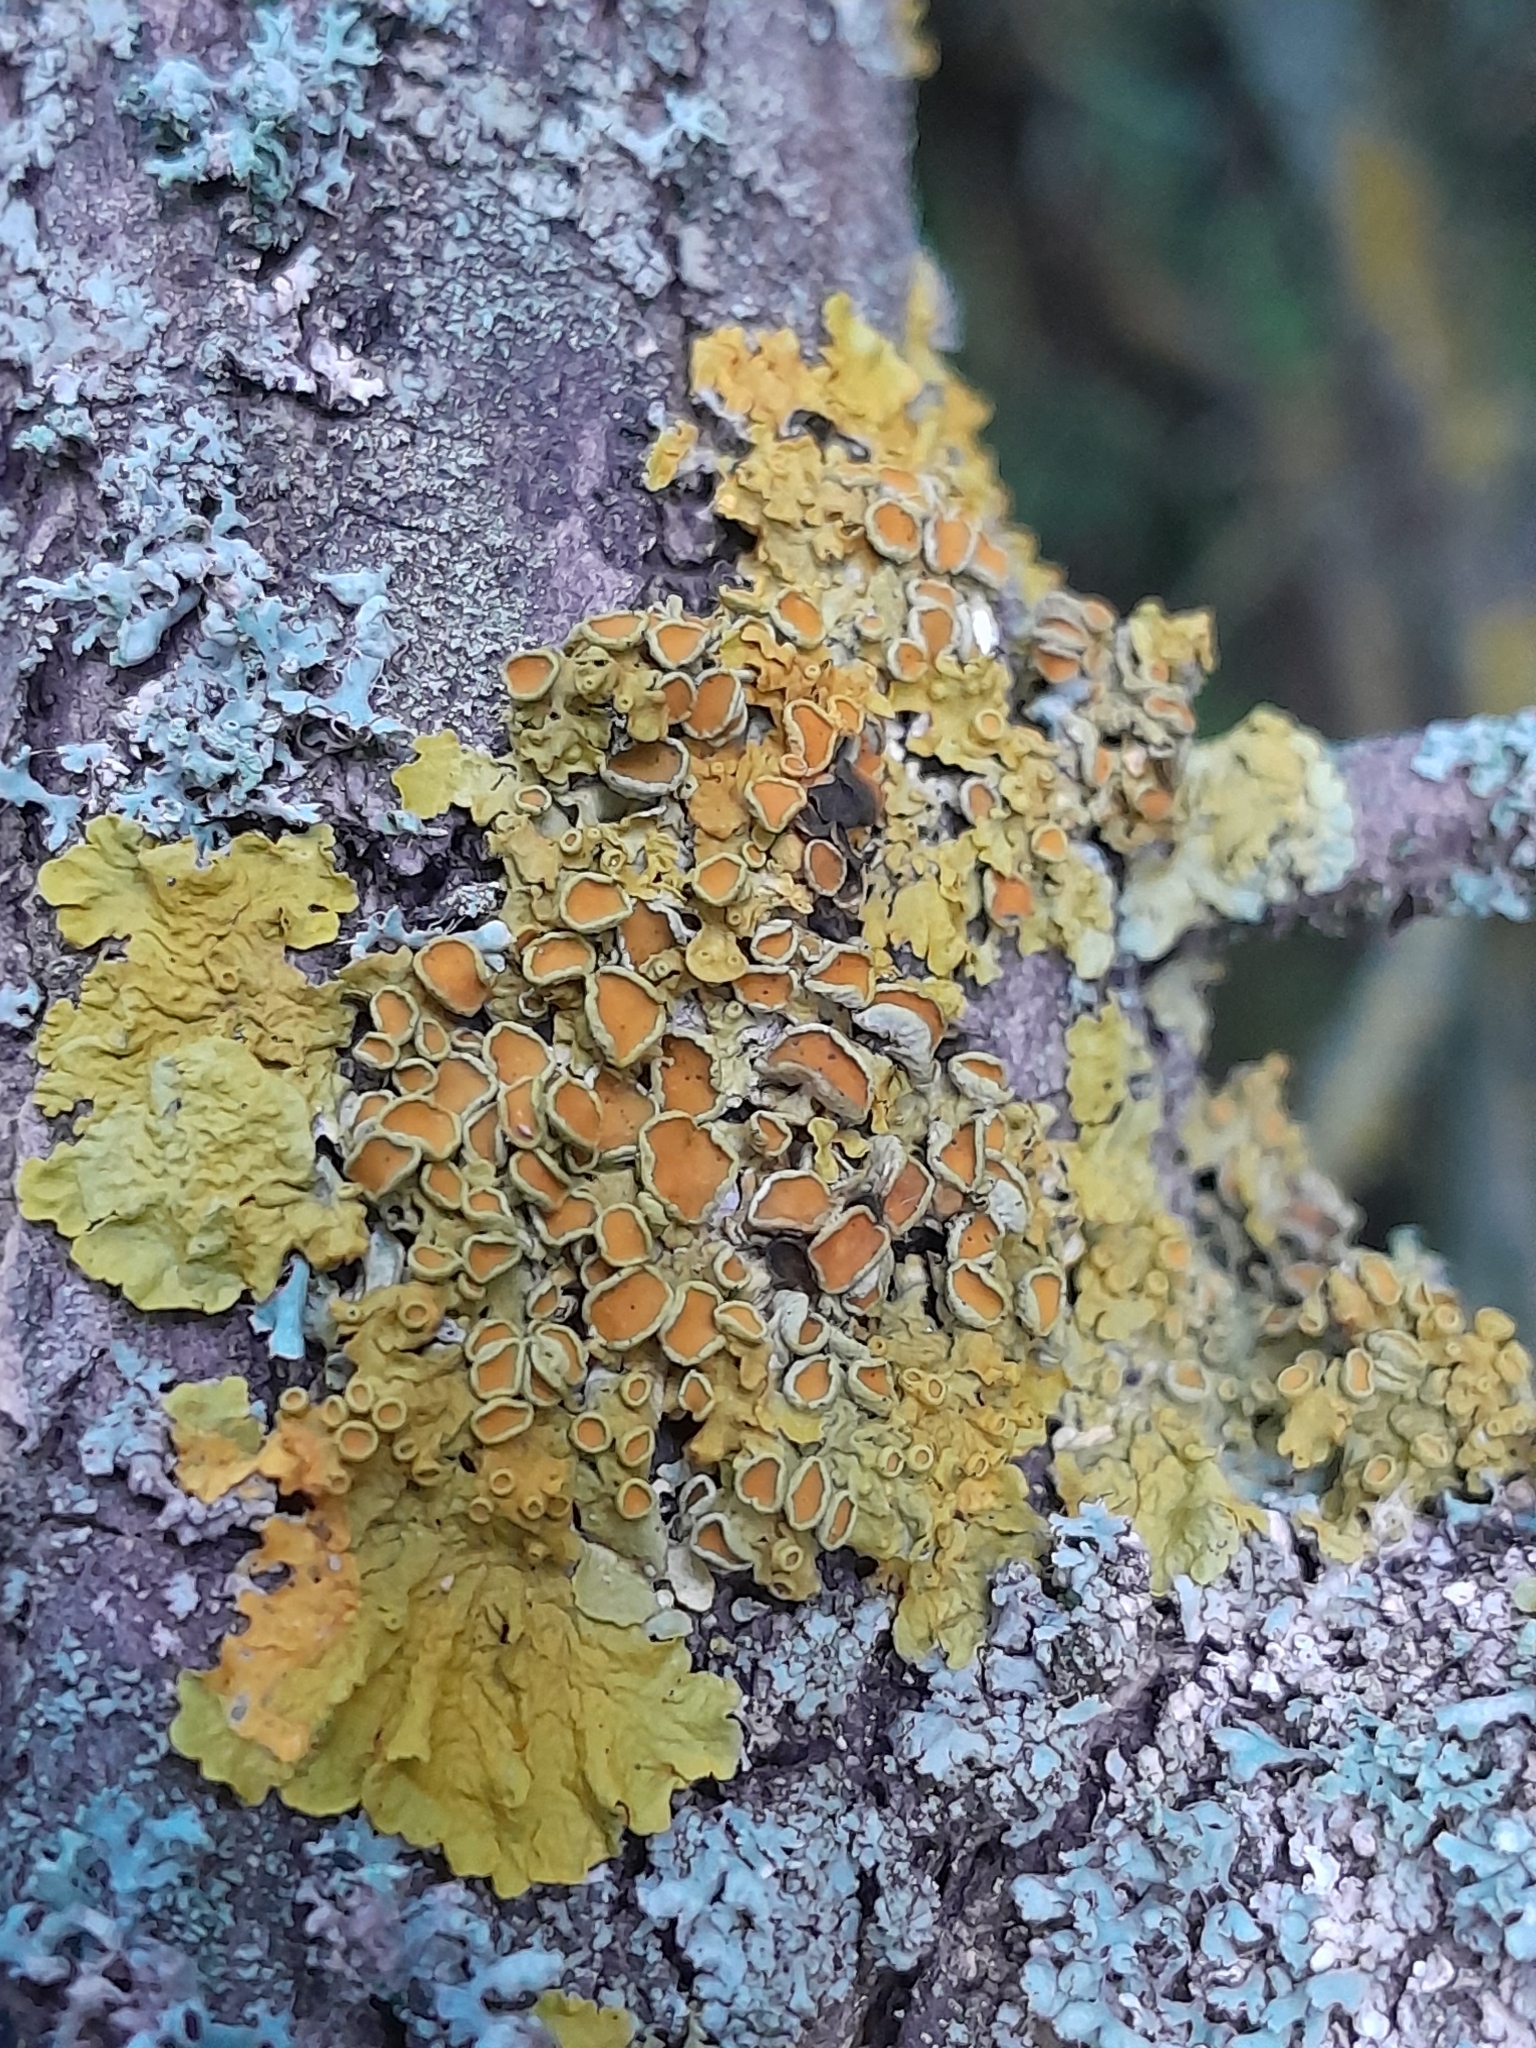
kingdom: Fungi
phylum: Ascomycota
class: Lecanoromycetes
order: Teloschistales
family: Teloschistaceae
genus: Xanthoria
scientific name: Xanthoria parietina
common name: Common orange lichen
